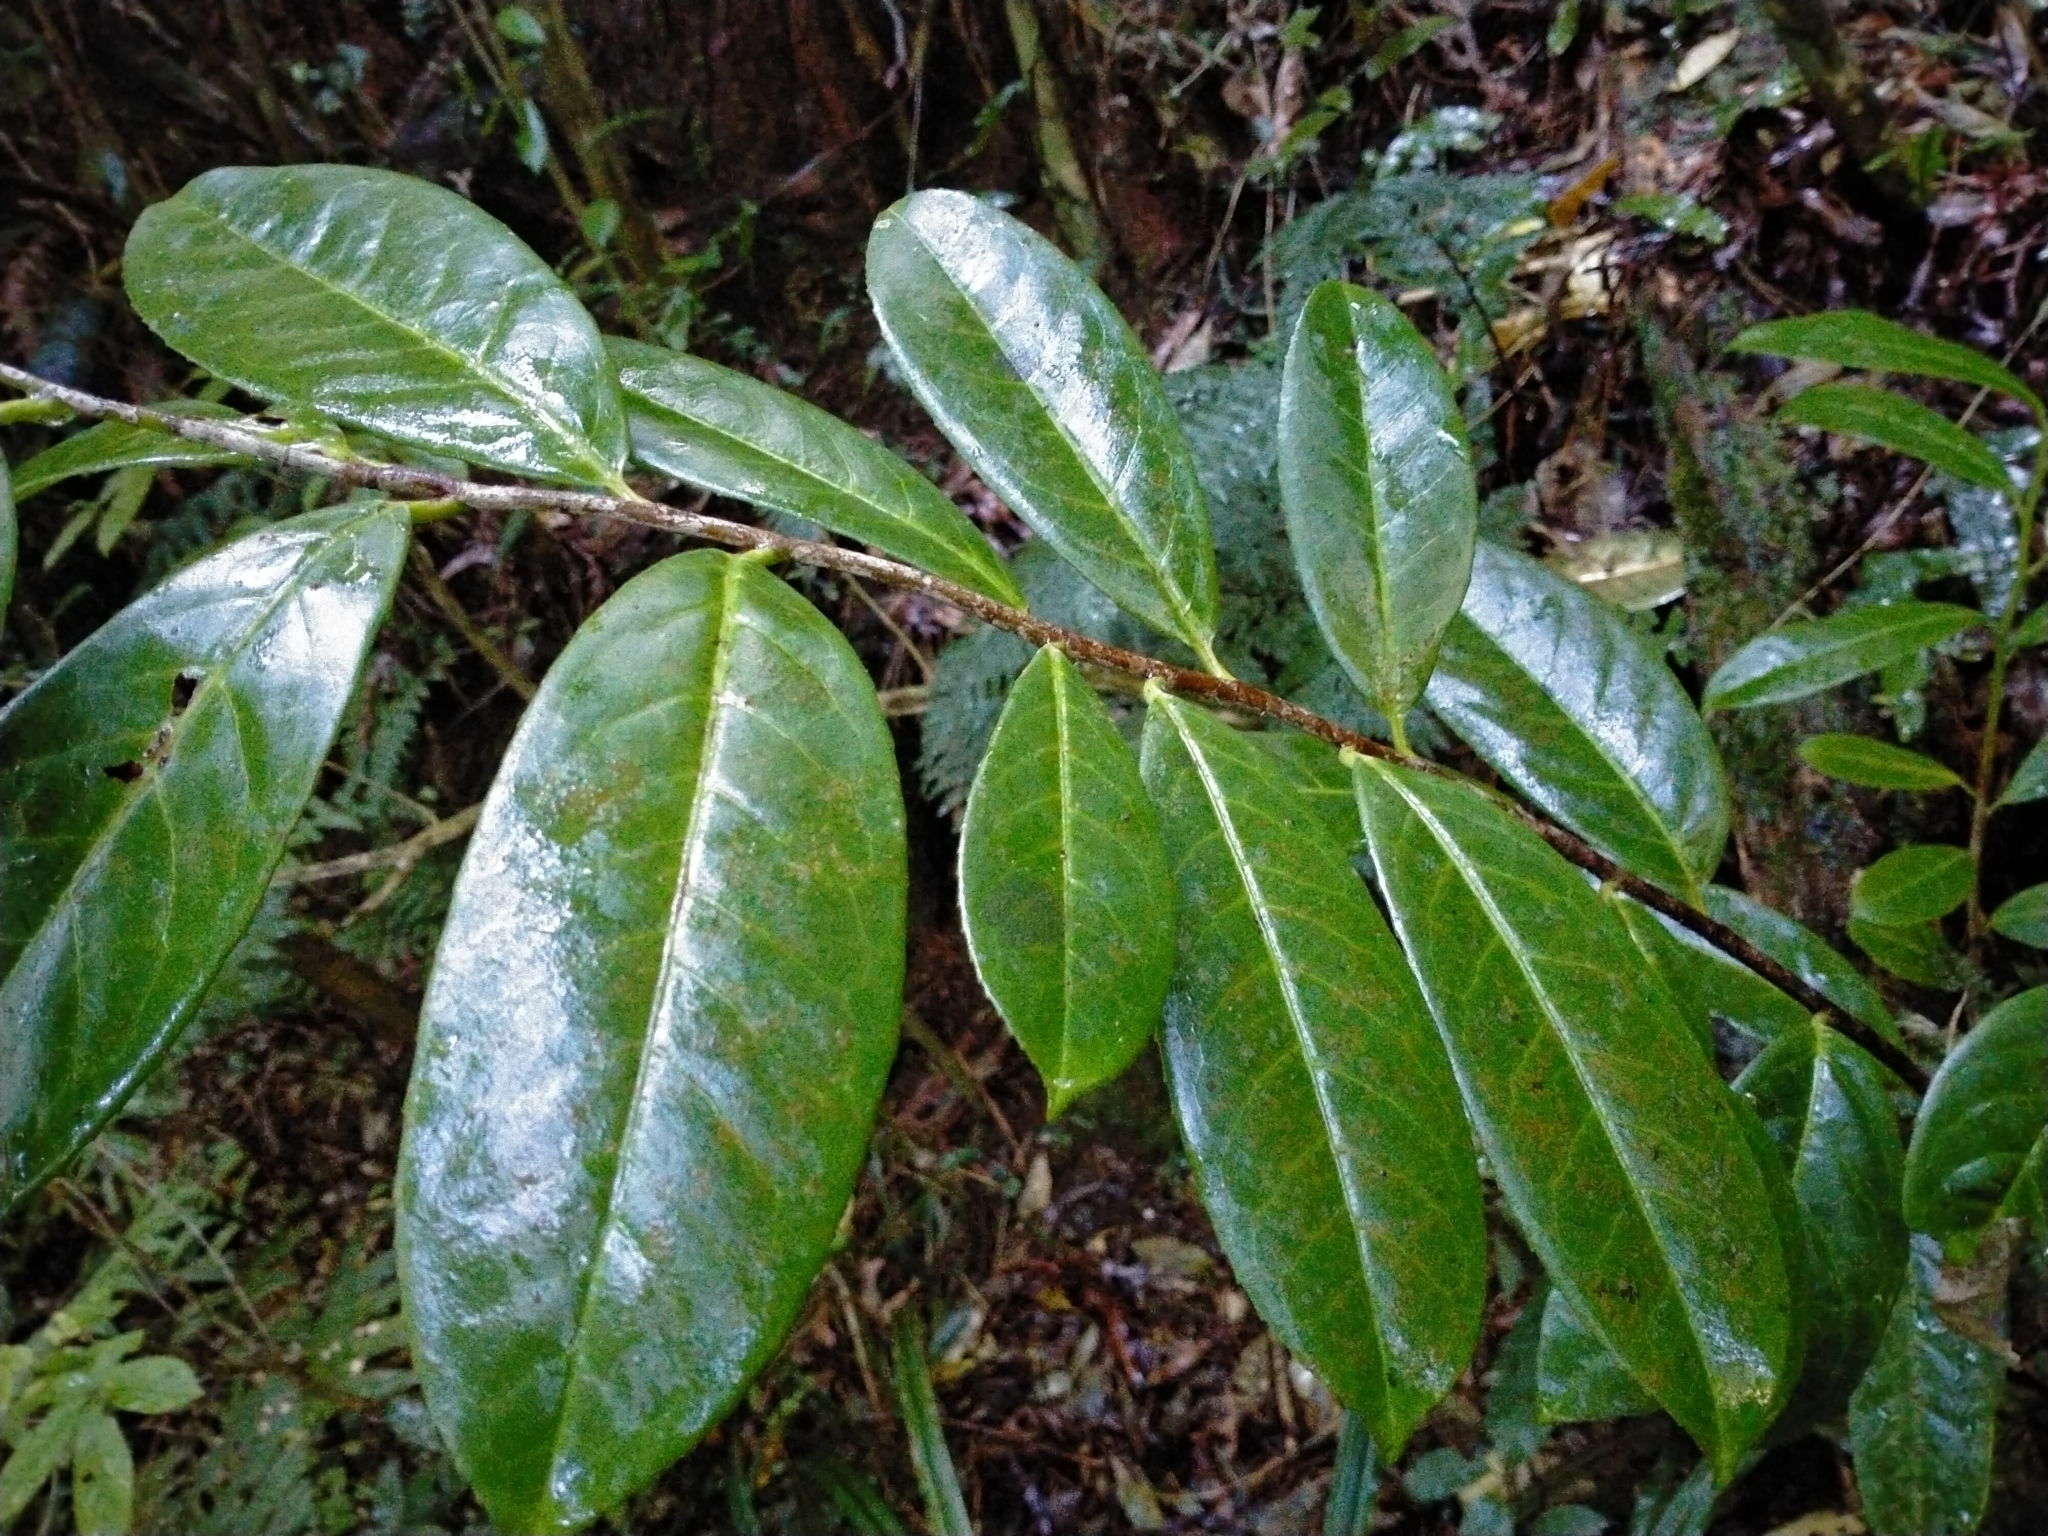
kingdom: Plantae
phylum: Tracheophyta
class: Magnoliopsida
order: Rosales
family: Rosaceae
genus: Prunus
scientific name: Prunus laurocerasus
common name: Cherry laurel
